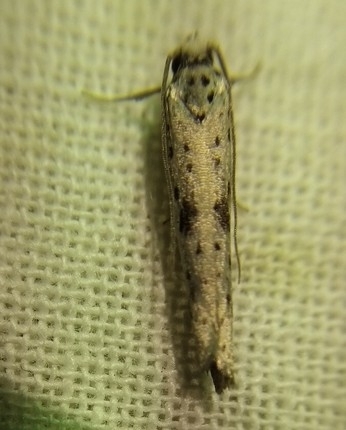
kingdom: Animalia
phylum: Arthropoda
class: Insecta
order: Lepidoptera
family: Yponomeutidae
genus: Yponomeuta
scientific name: Yponomeuta plumbella
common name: Black-tipped ermine
